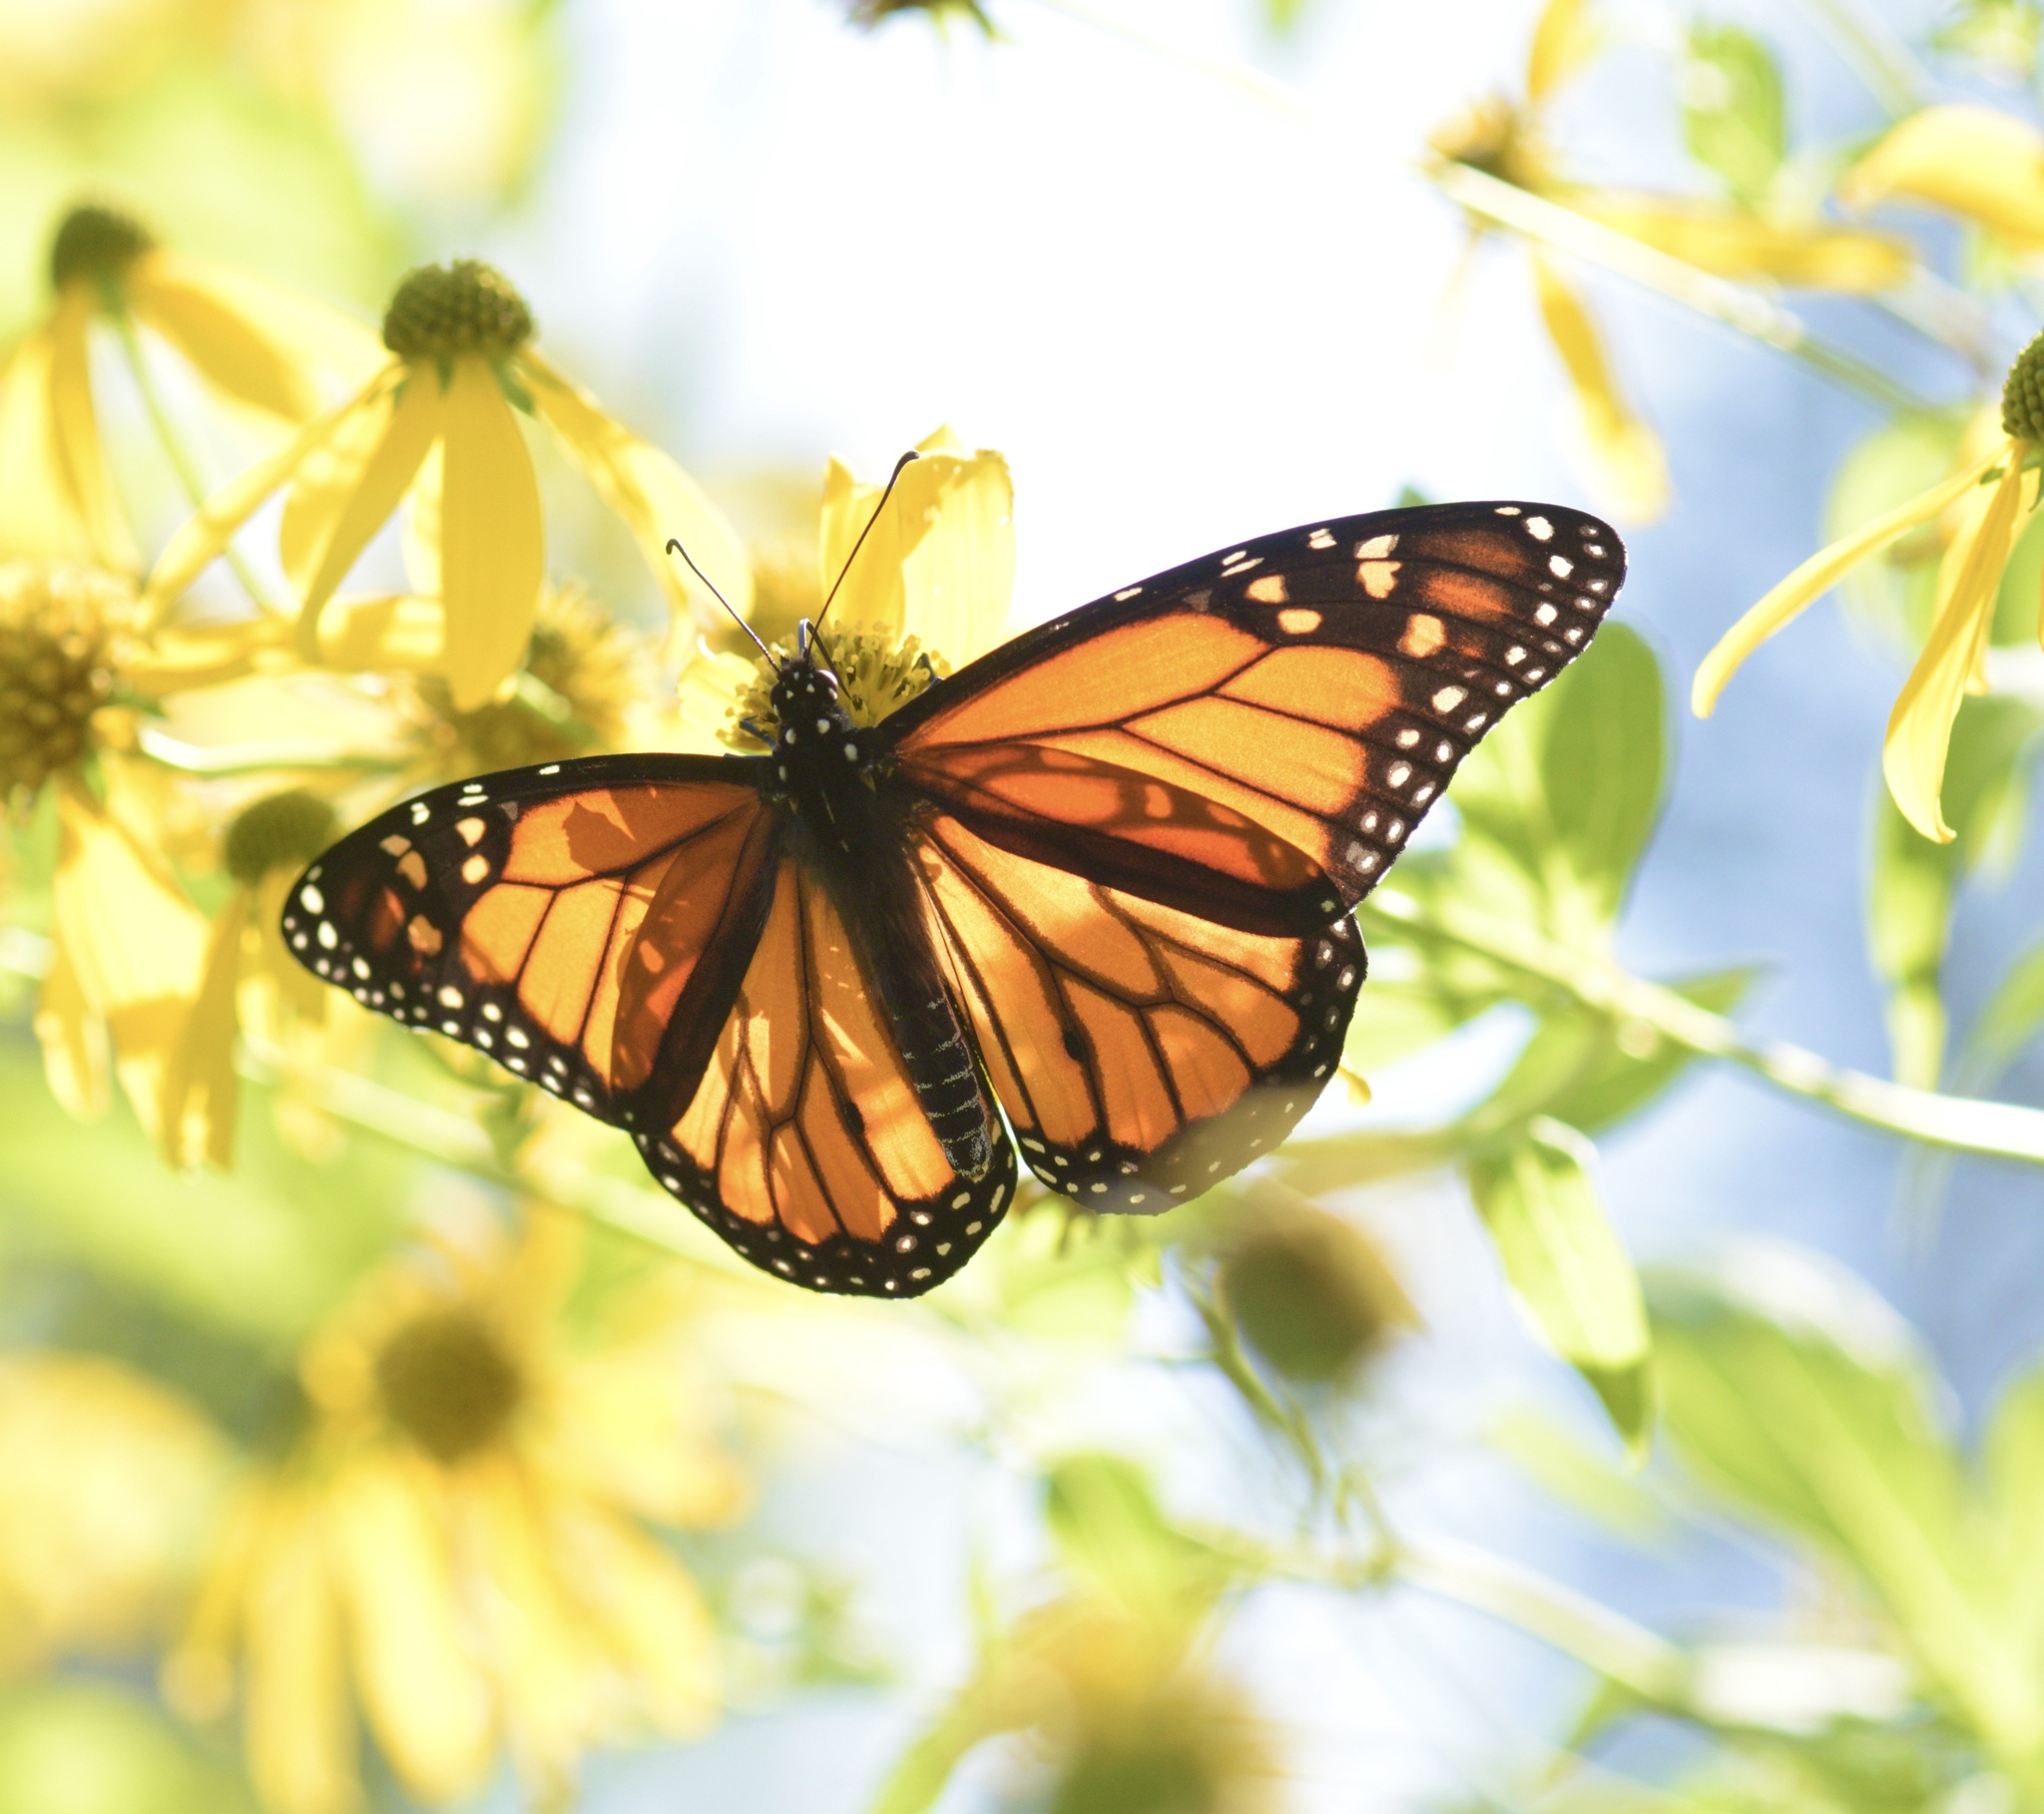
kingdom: Animalia
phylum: Arthropoda
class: Insecta
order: Lepidoptera
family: Nymphalidae
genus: Danaus
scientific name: Danaus plexippus
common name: Monarch
